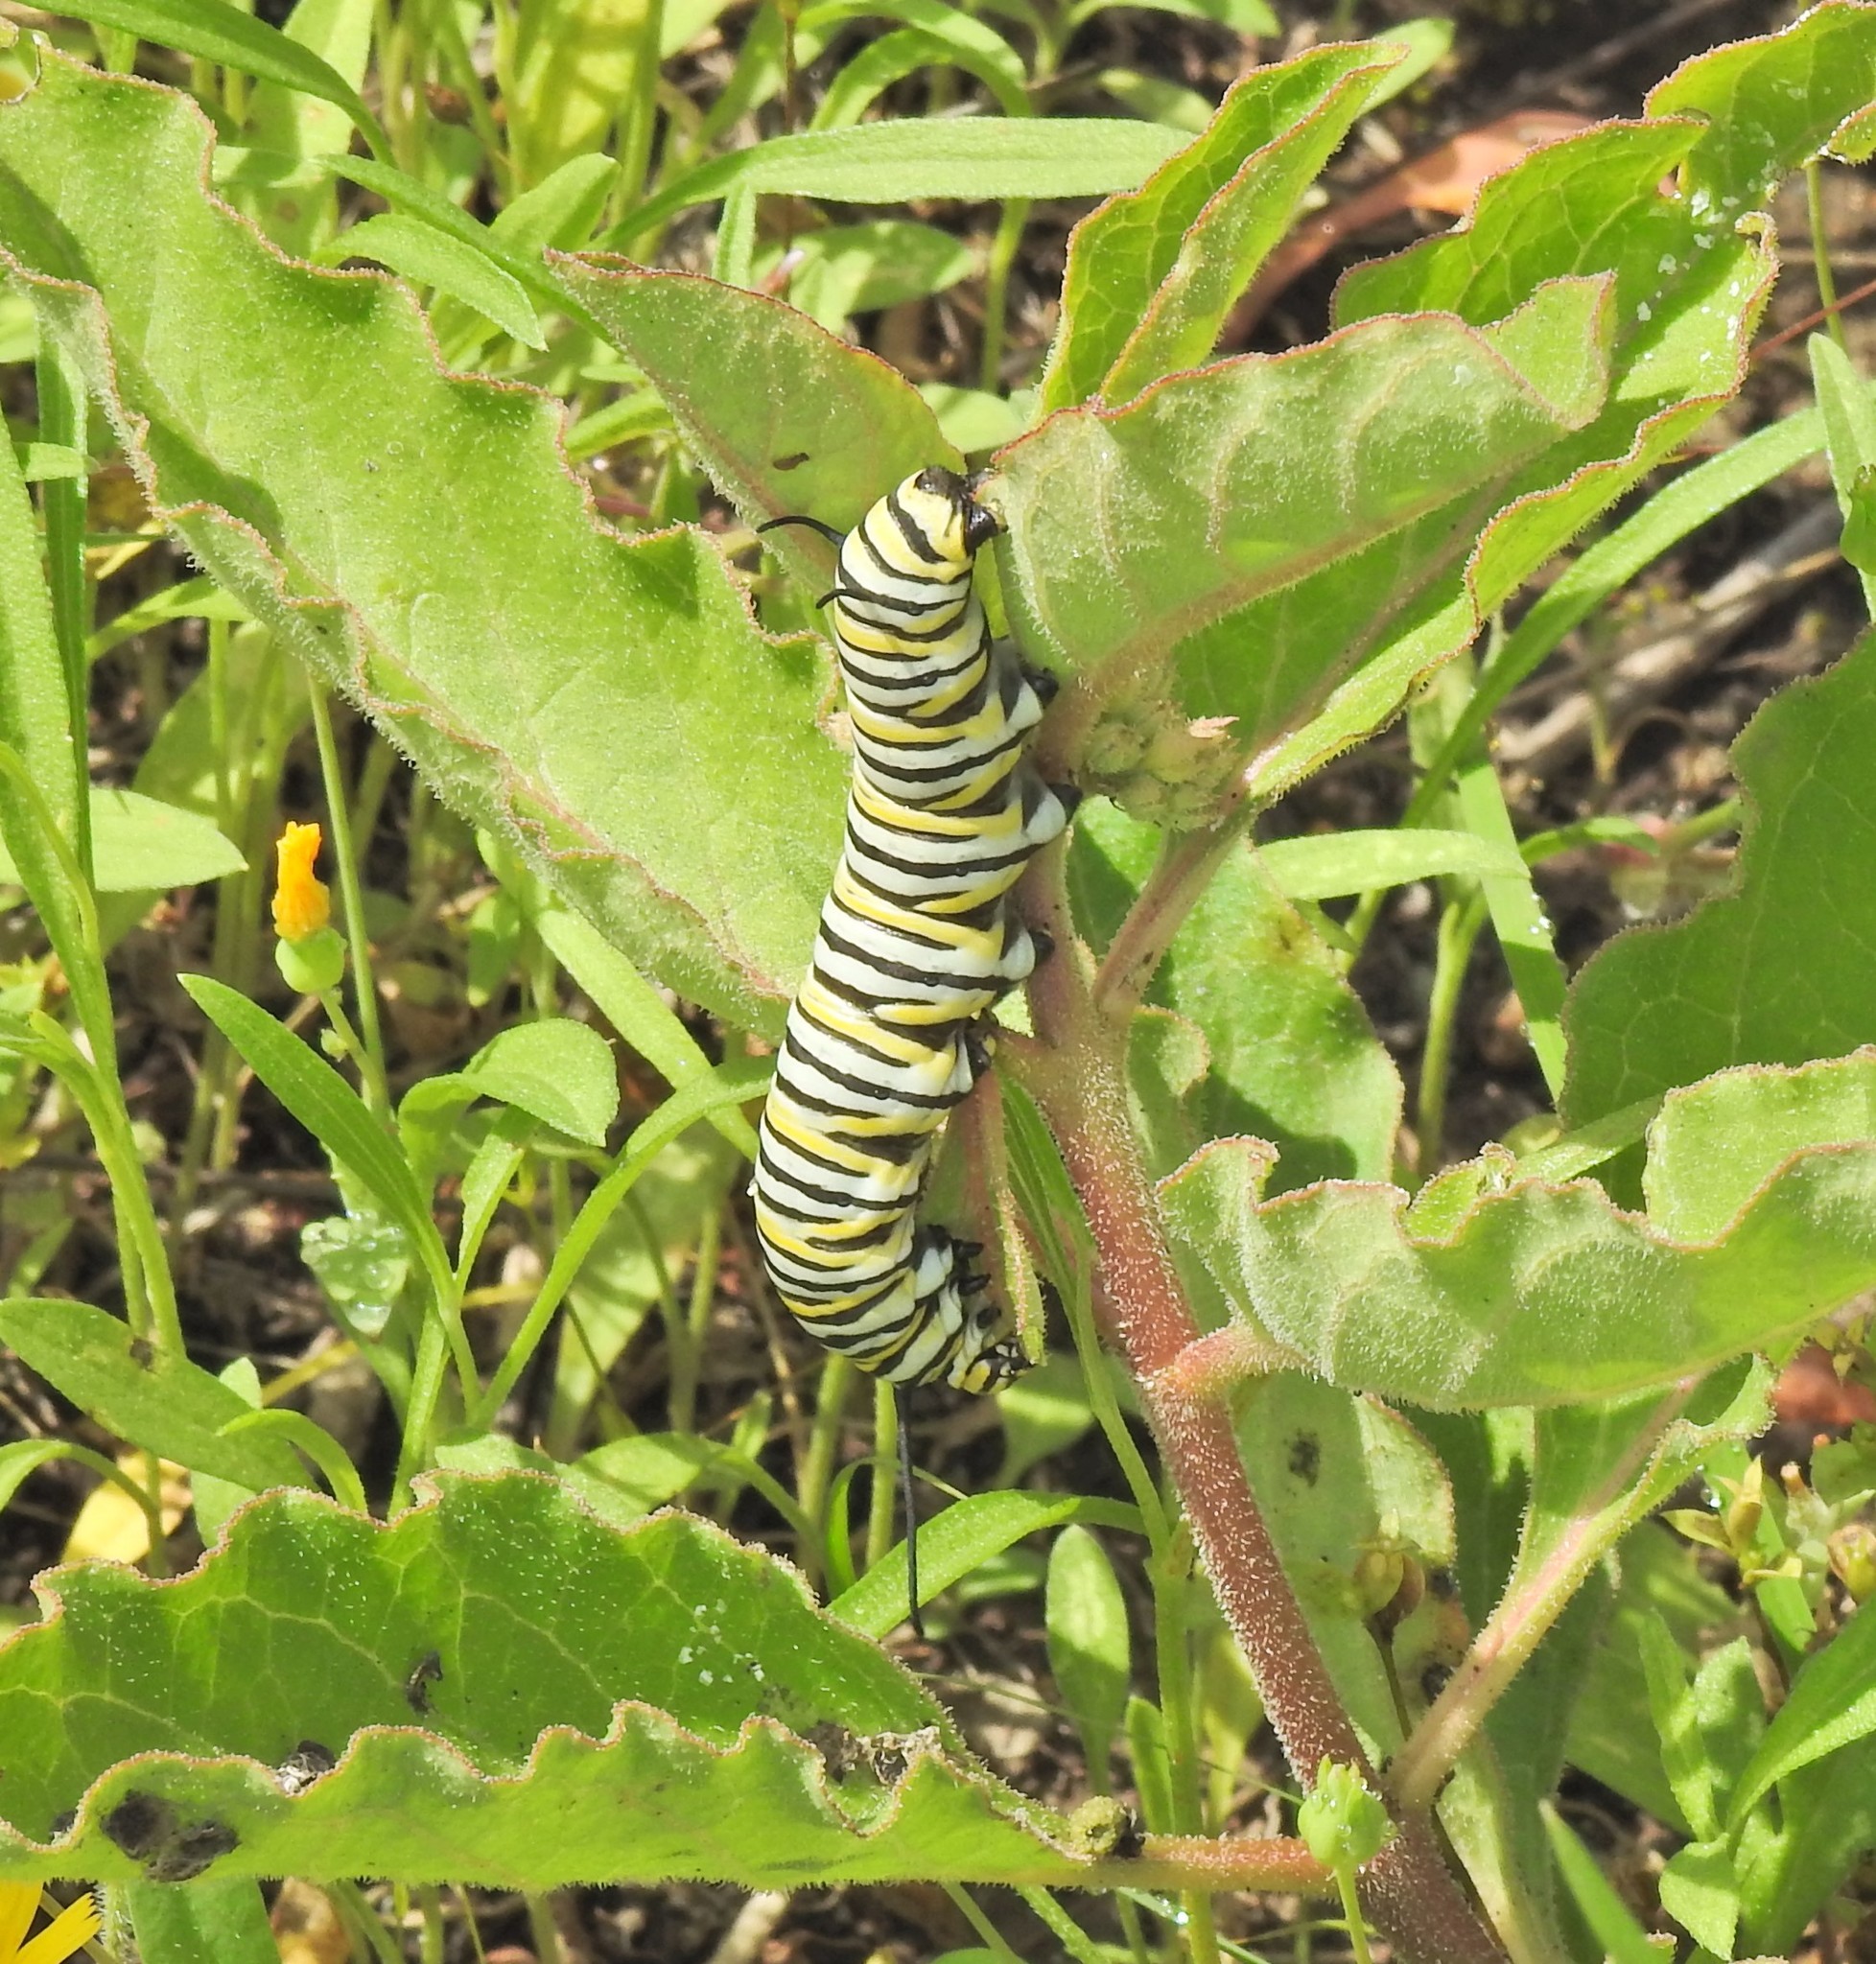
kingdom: Animalia
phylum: Arthropoda
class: Insecta
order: Lepidoptera
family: Nymphalidae
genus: Danaus
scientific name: Danaus plexippus
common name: Monarch
